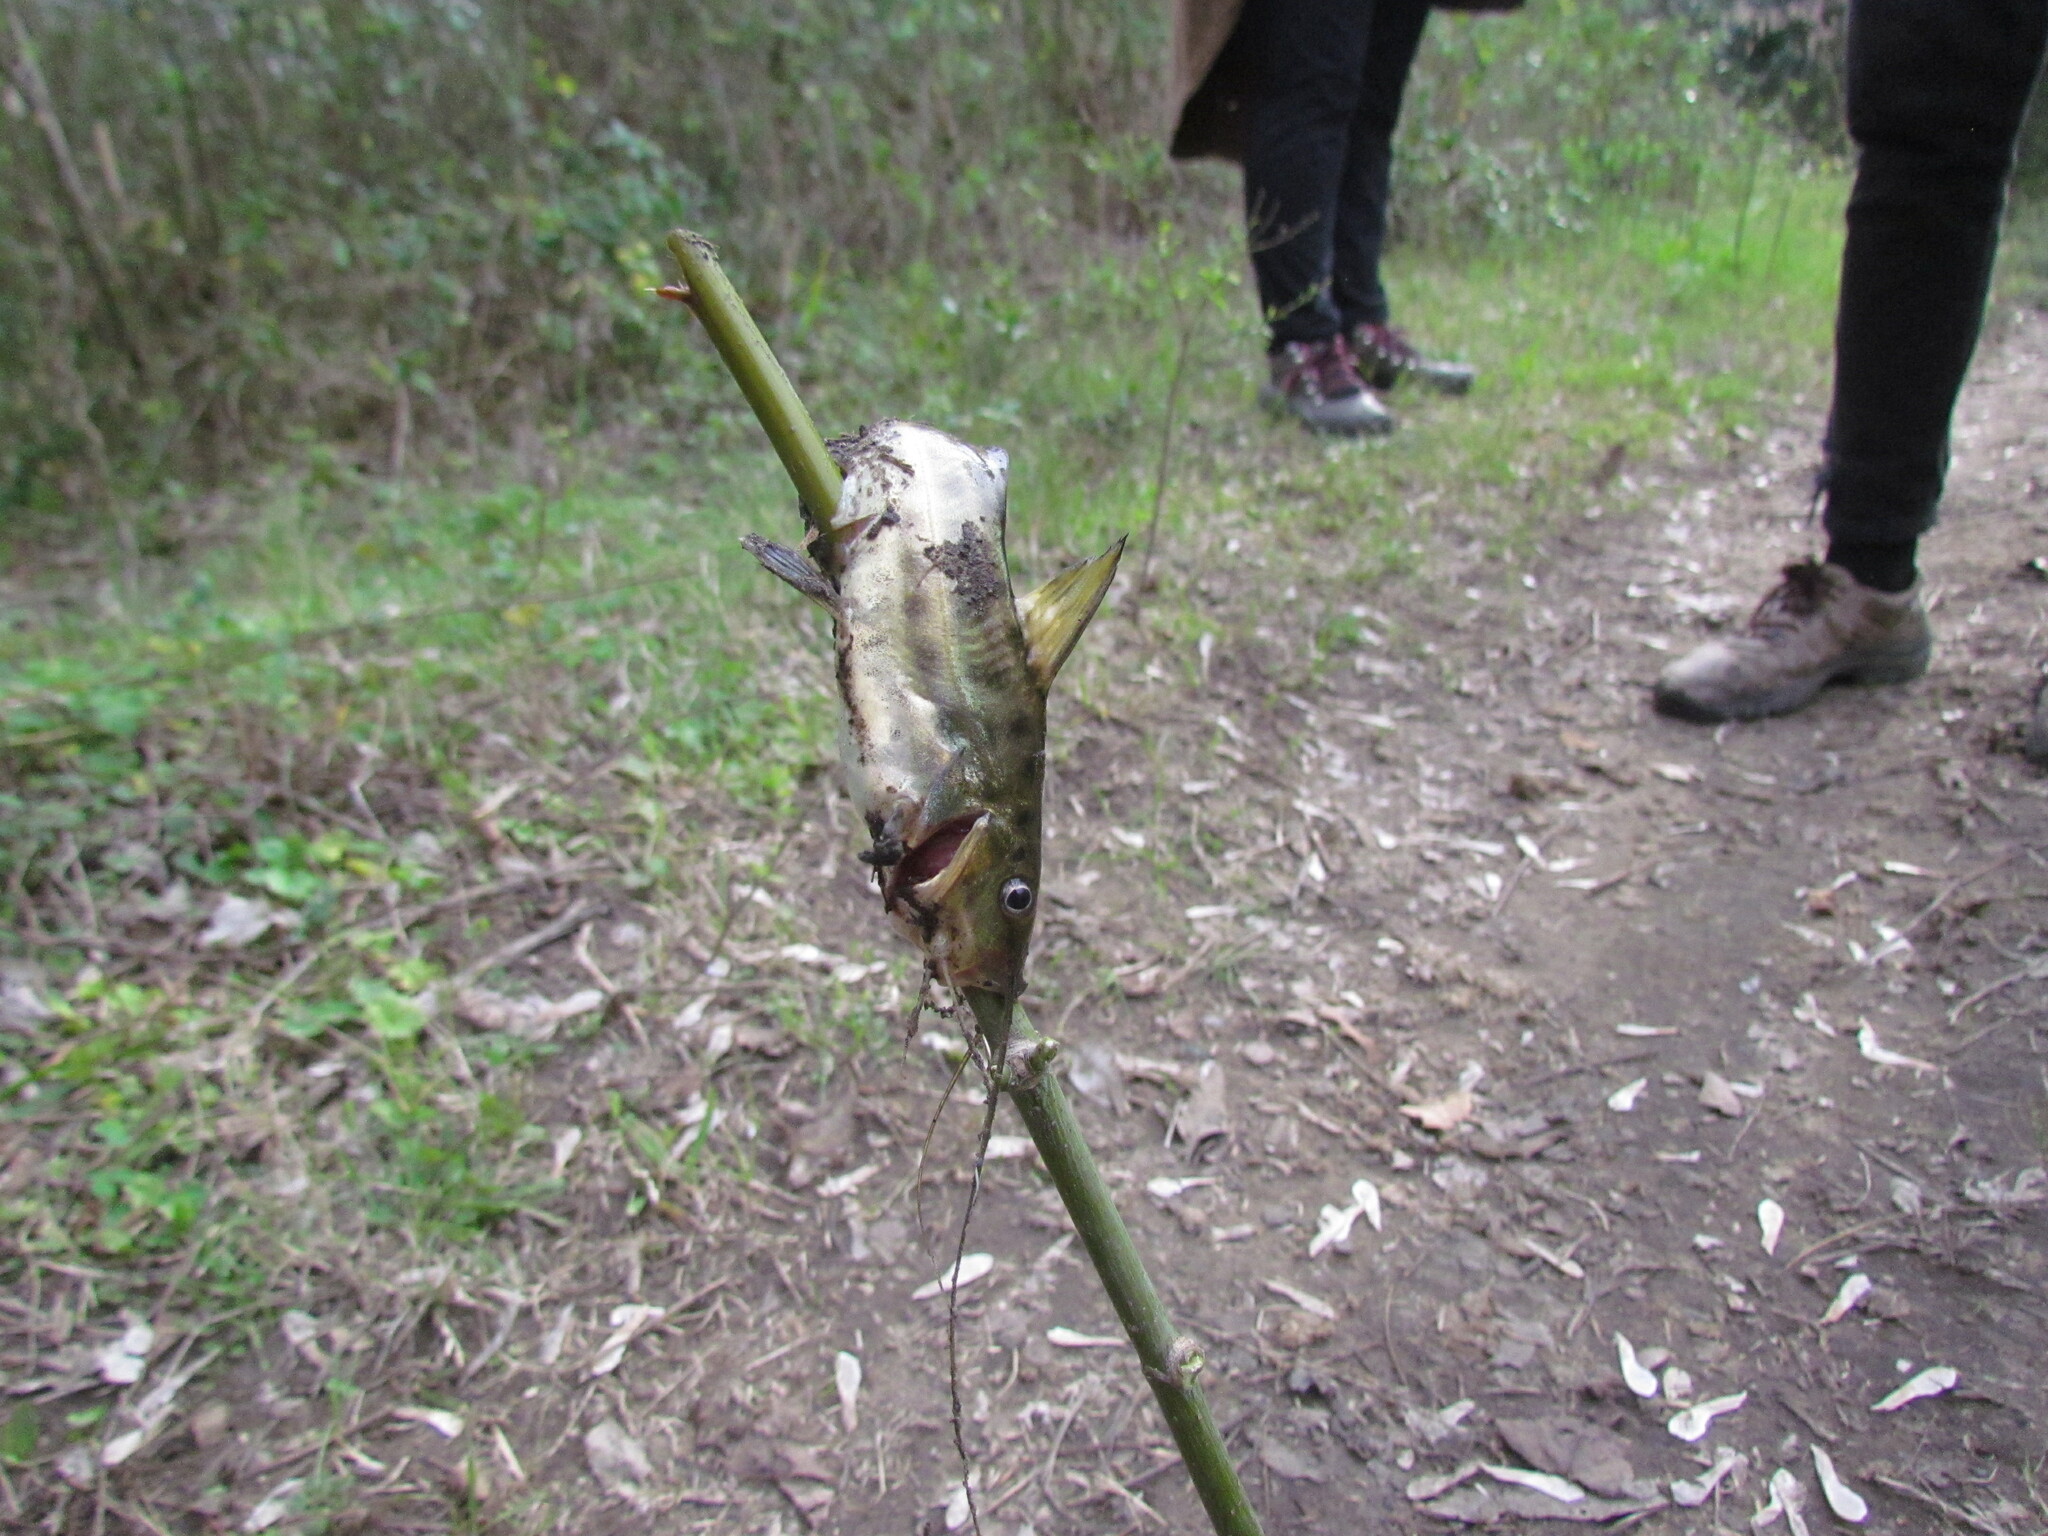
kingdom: Animalia
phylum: Chordata
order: Siluriformes
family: Pimelodidae
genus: Pimelodus
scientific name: Pimelodus maculatus
